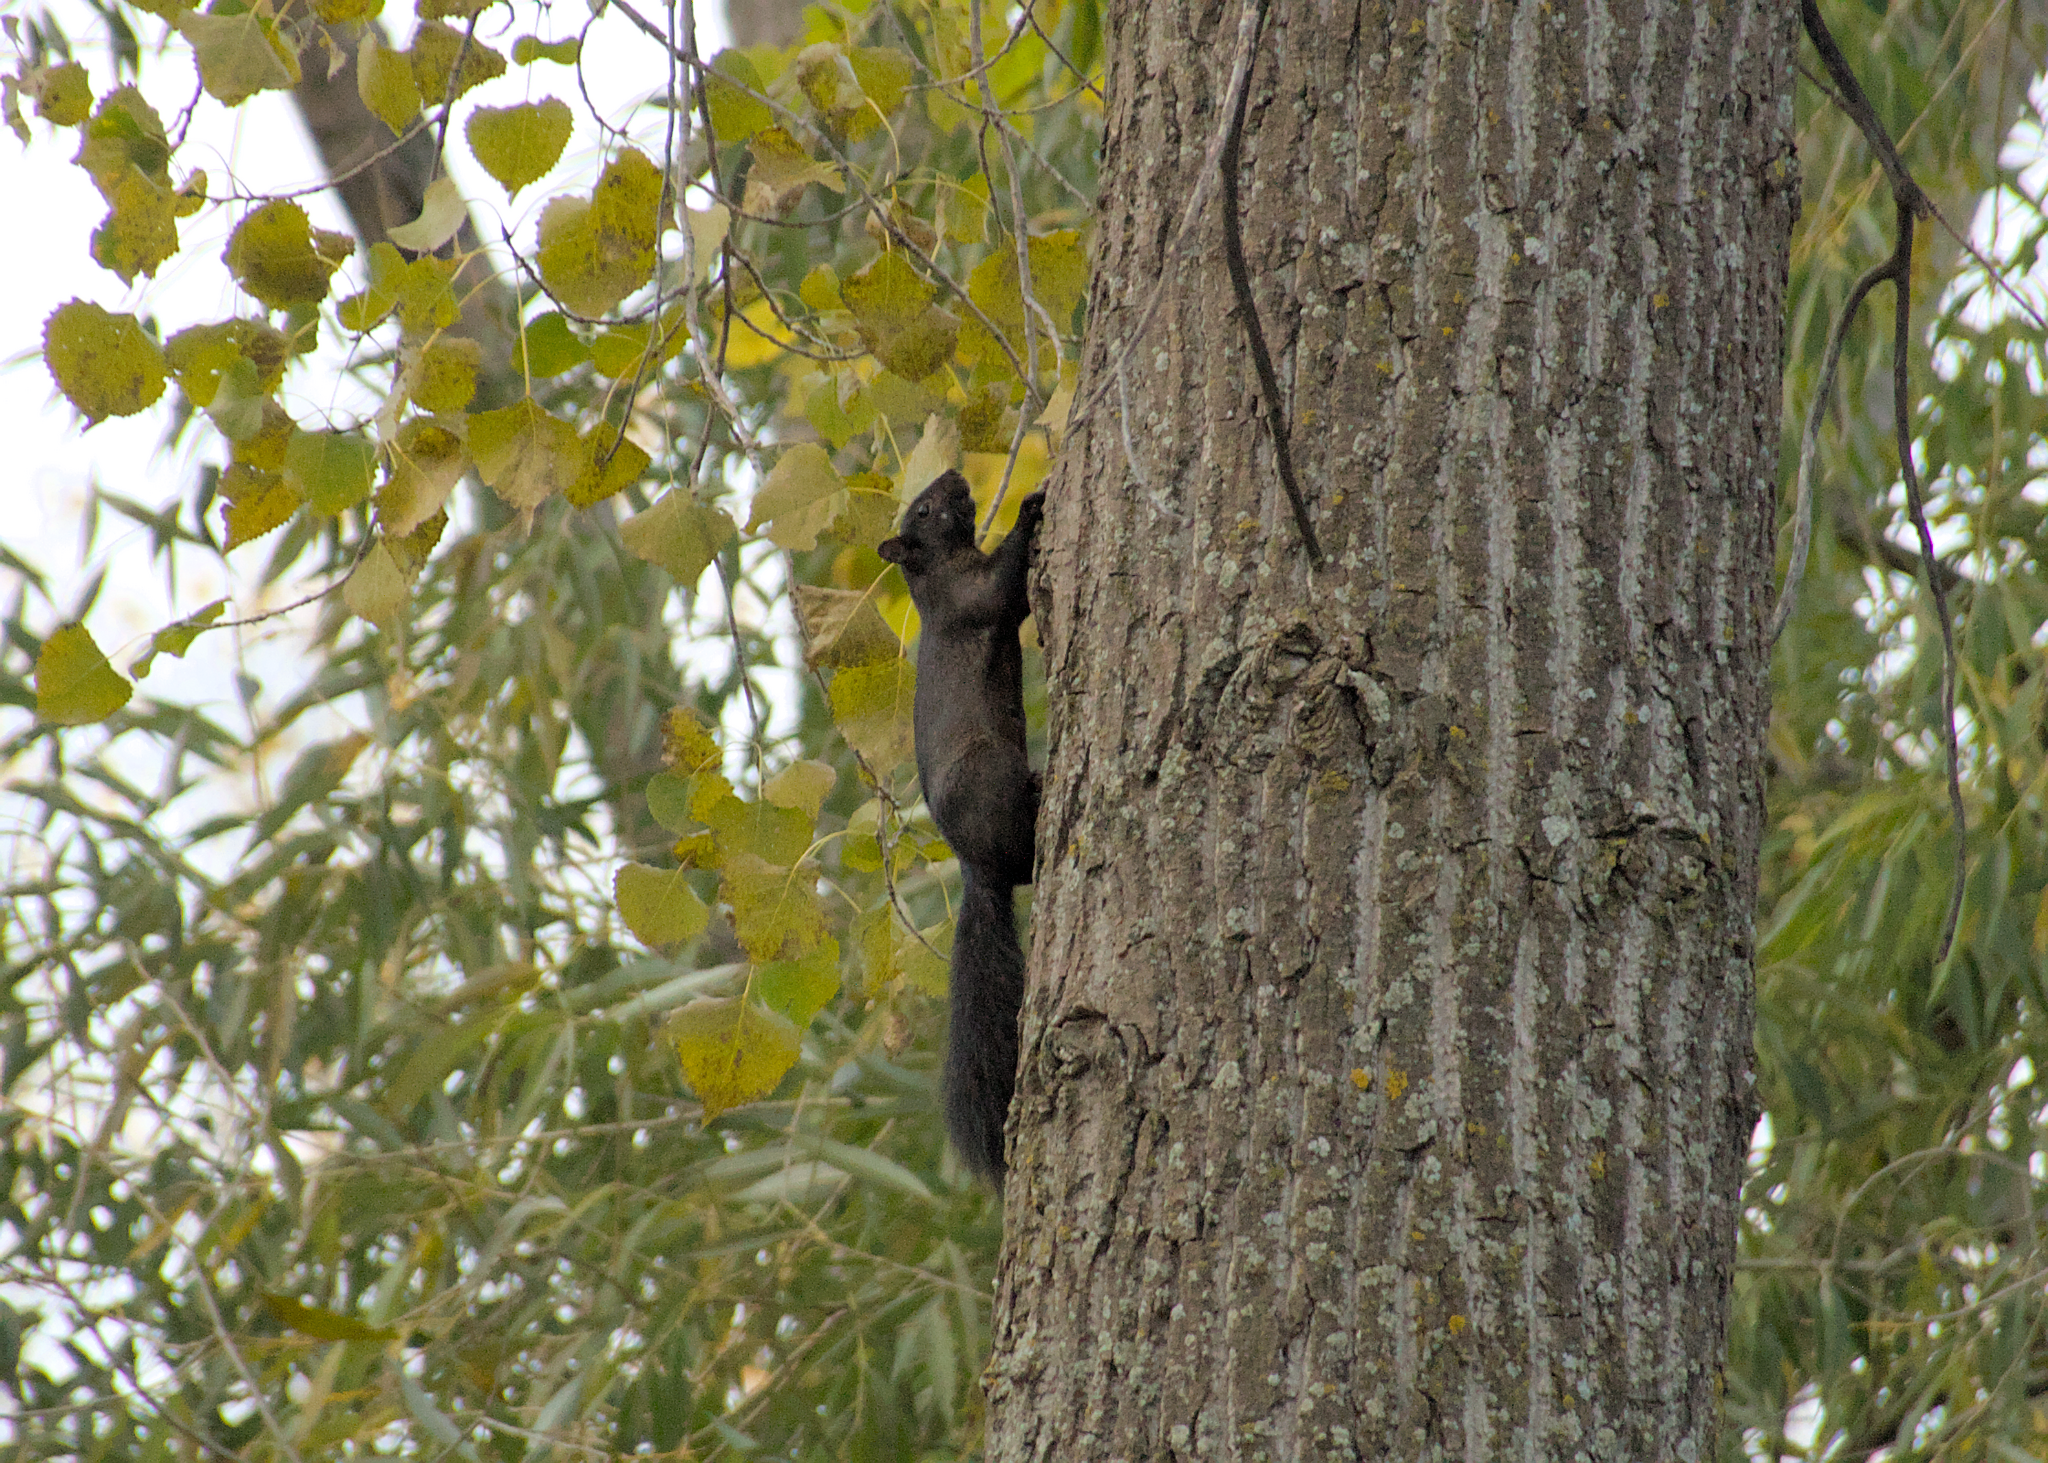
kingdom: Animalia
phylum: Chordata
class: Mammalia
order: Rodentia
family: Sciuridae
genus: Sciurus
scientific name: Sciurus carolinensis
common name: Eastern gray squirrel
